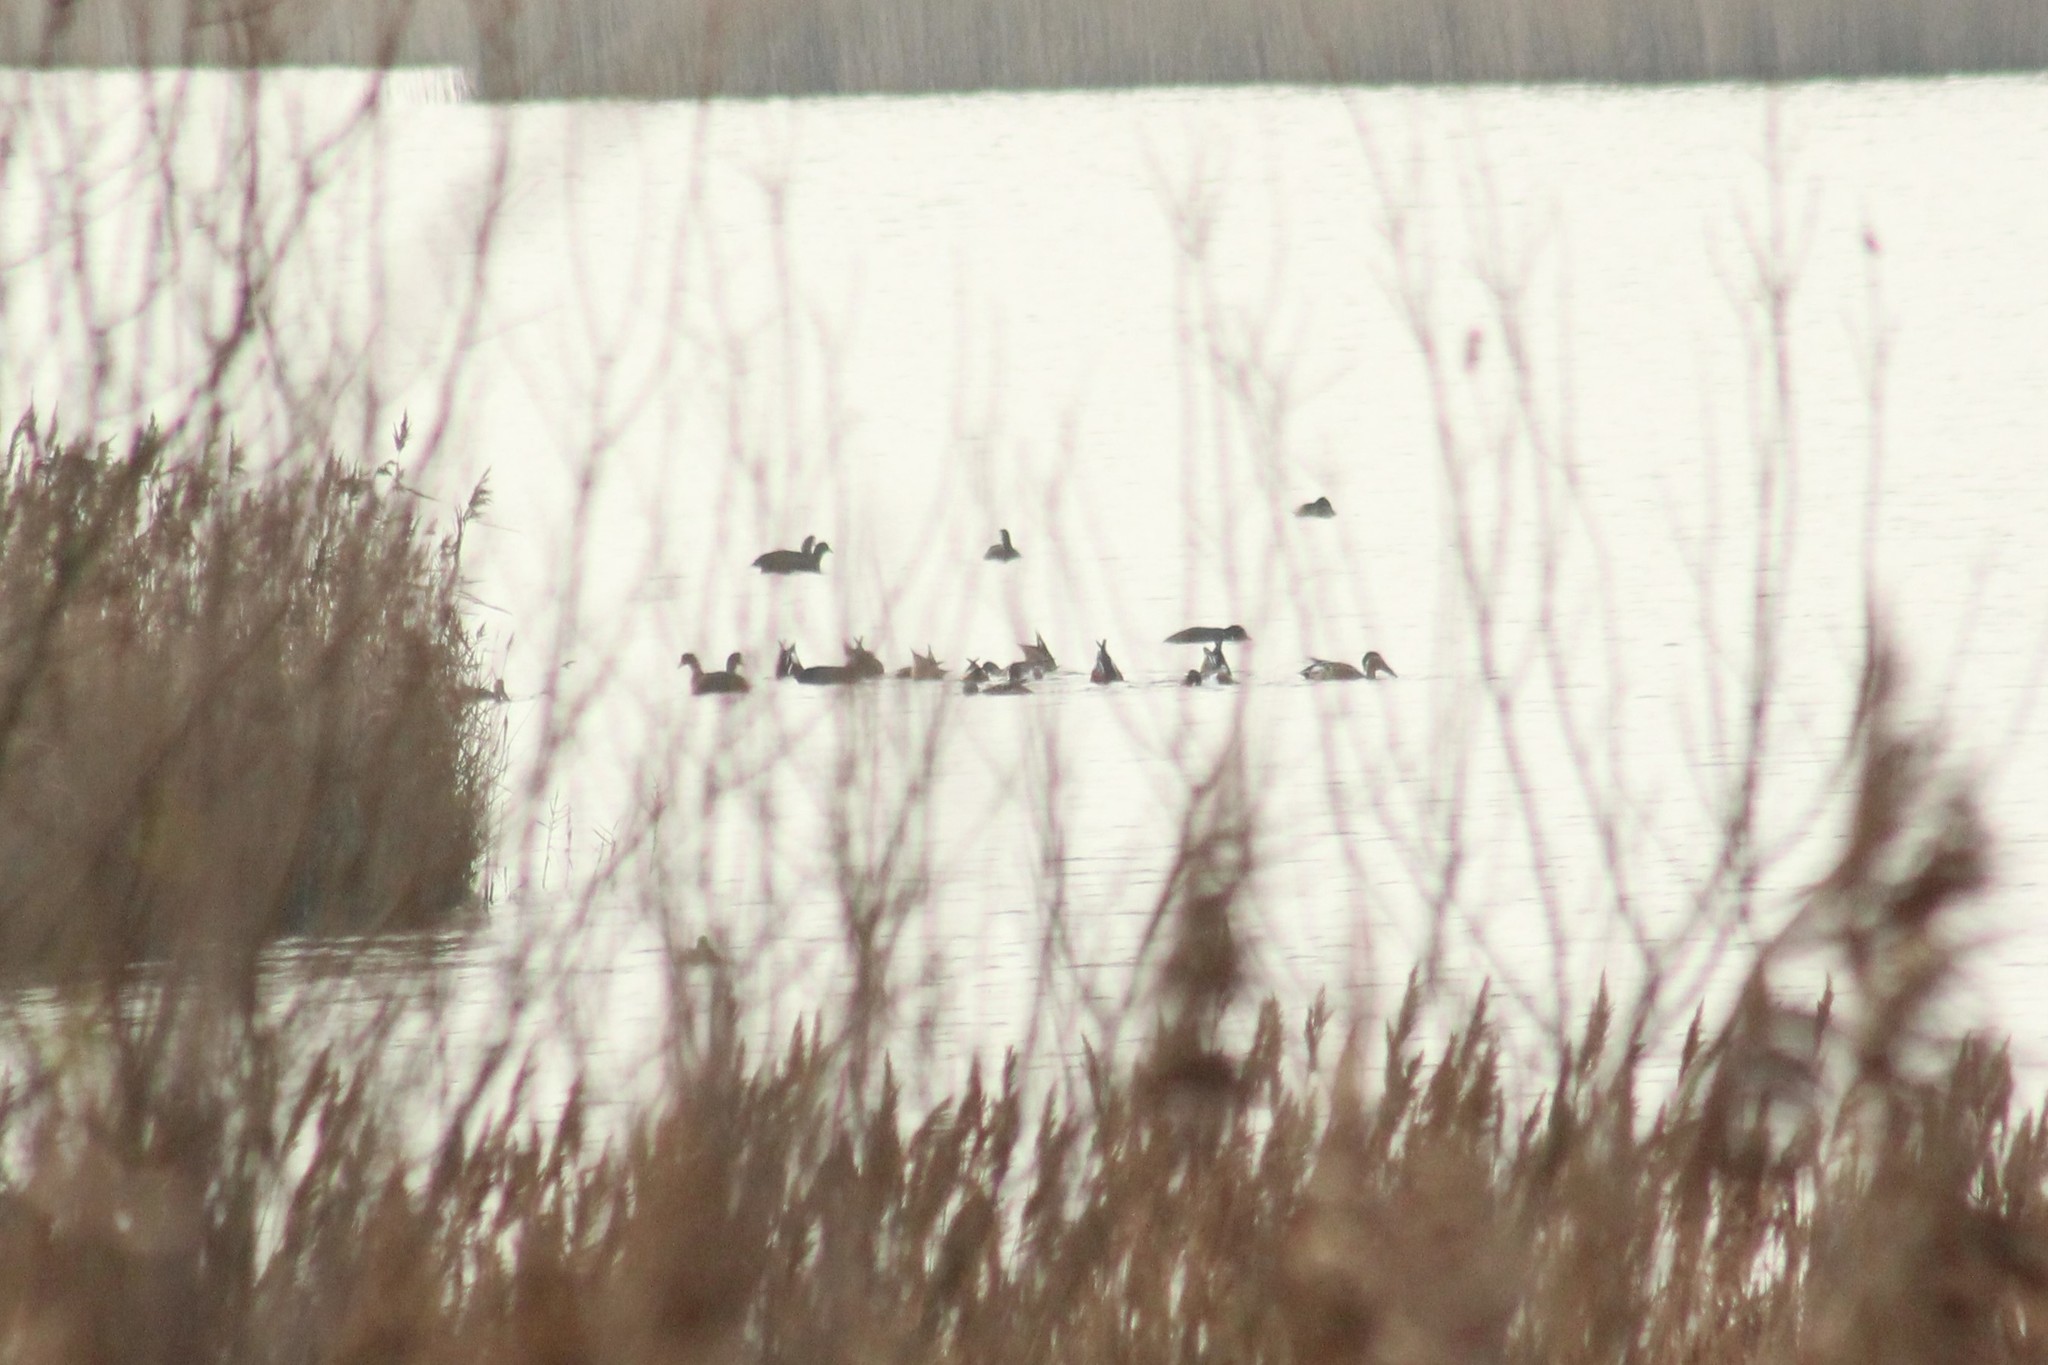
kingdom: Animalia
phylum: Chordata
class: Aves
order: Anseriformes
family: Anatidae
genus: Spatula
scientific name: Spatula clypeata
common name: Northern shoveler
